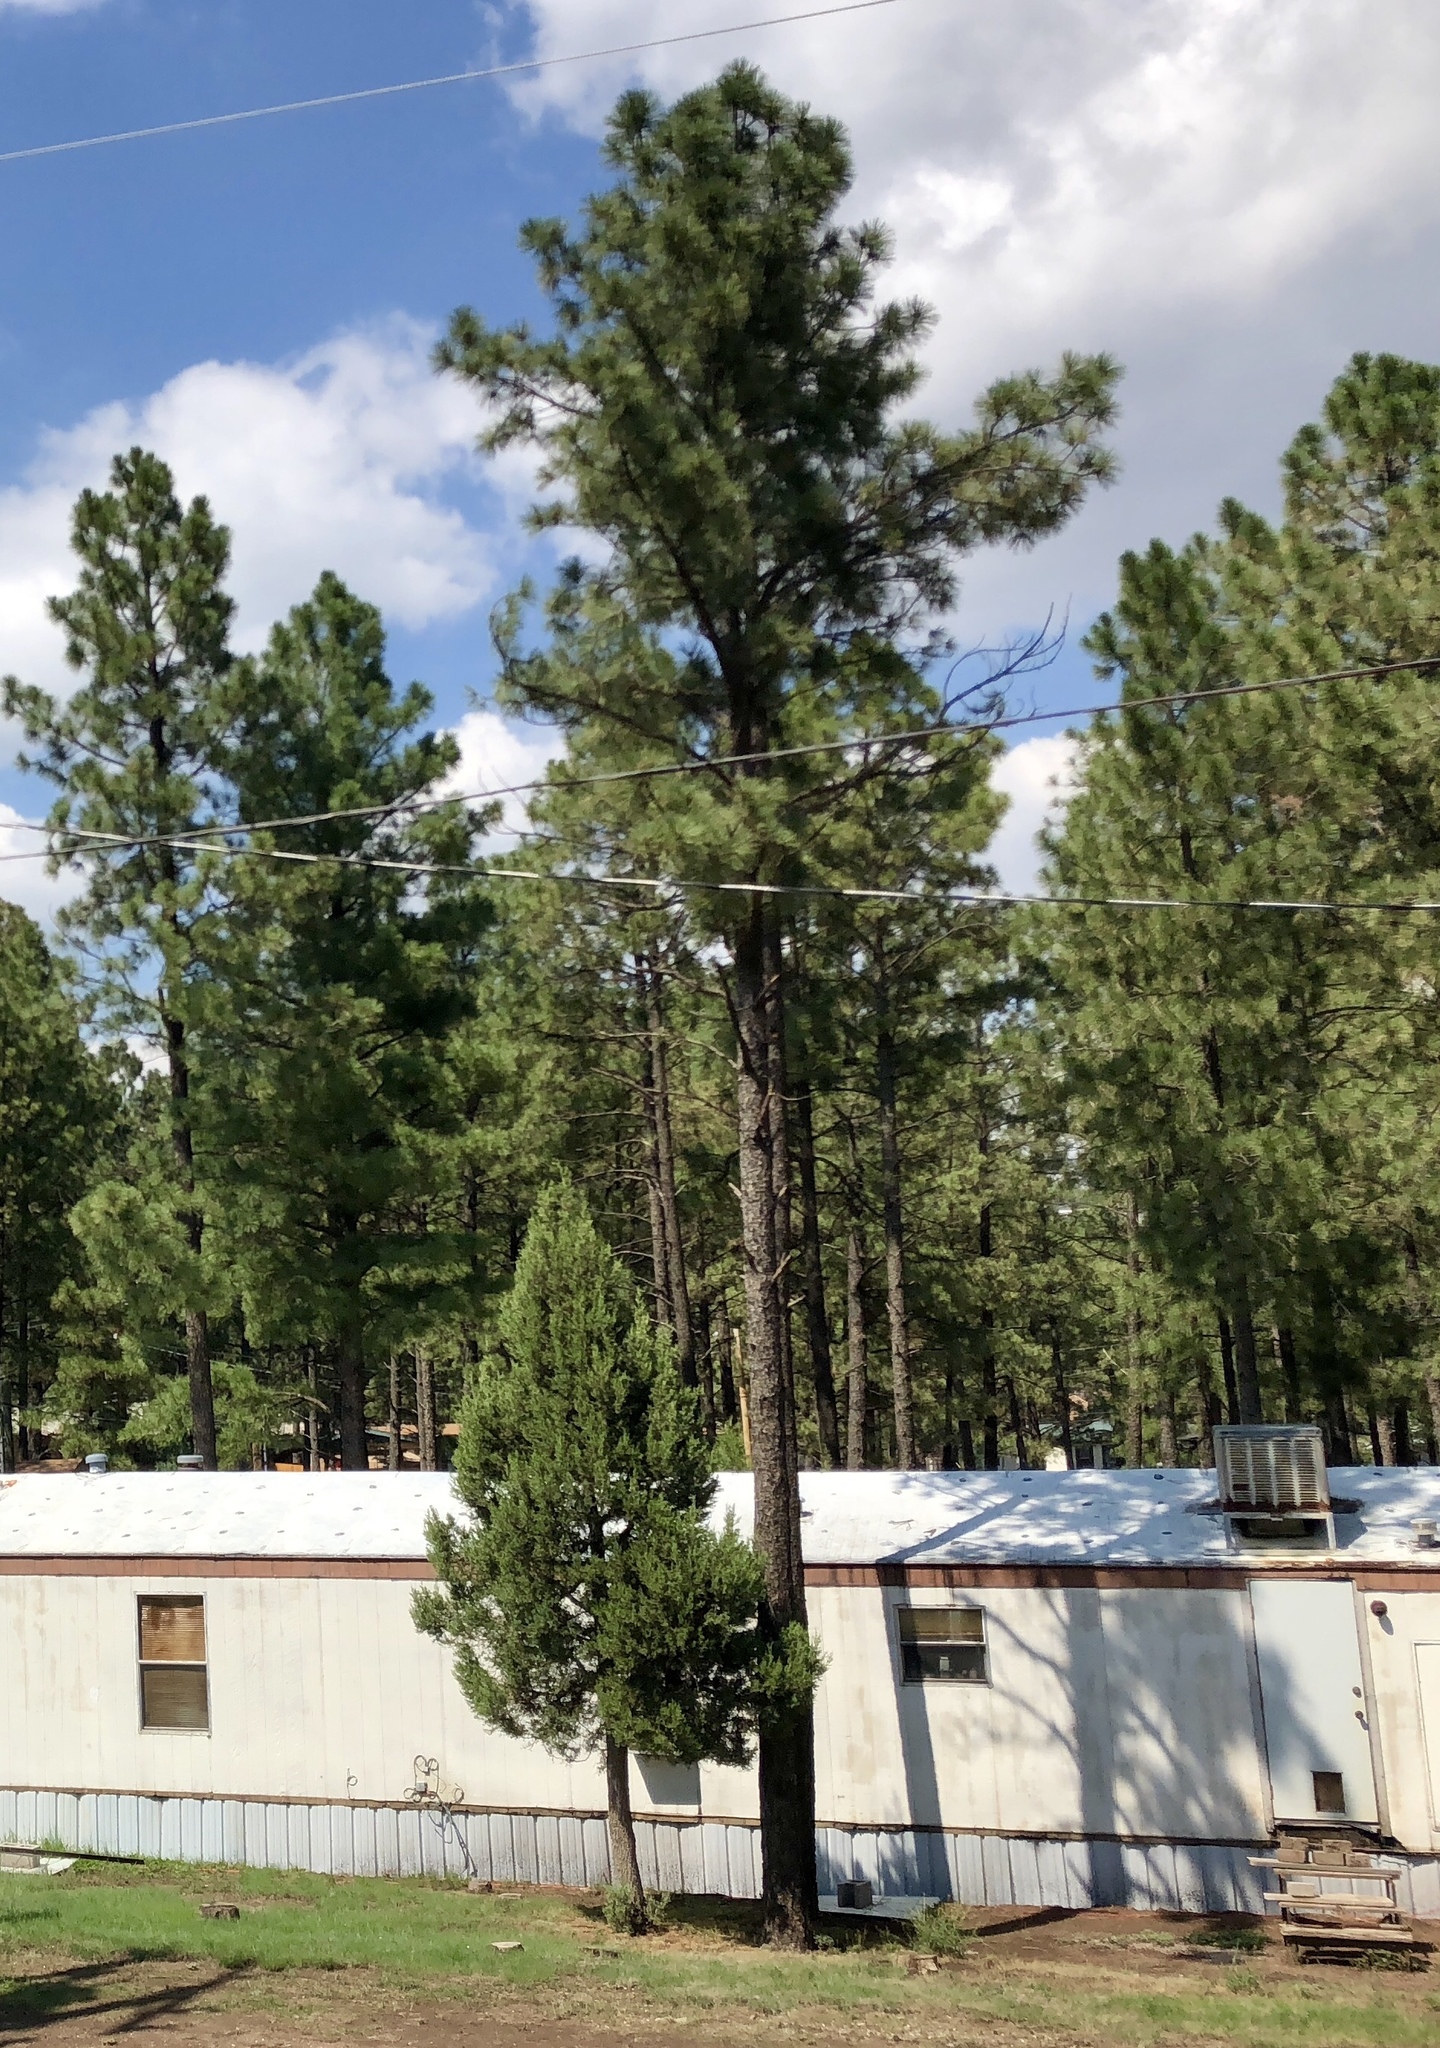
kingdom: Plantae
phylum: Tracheophyta
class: Pinopsida
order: Pinales
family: Pinaceae
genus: Pinus
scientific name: Pinus ponderosa
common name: Western yellow-pine
